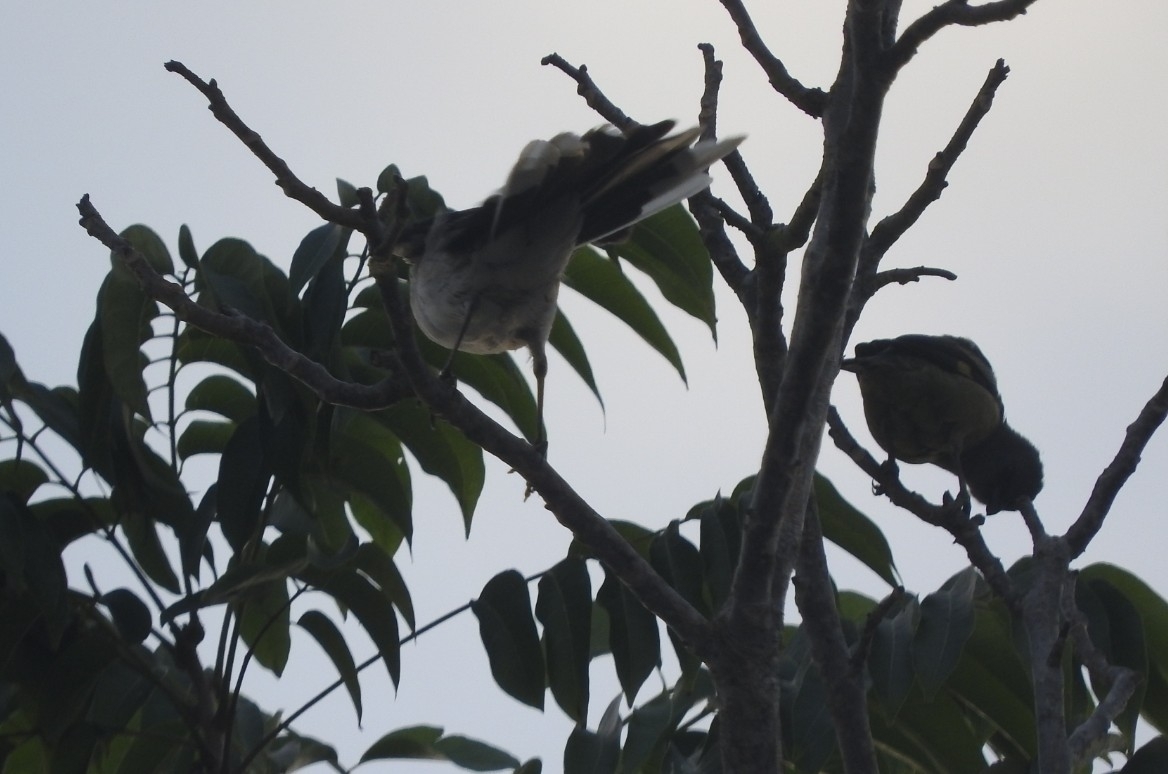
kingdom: Animalia
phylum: Chordata
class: Aves
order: Passeriformes
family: Mimidae
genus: Mimus
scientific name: Mimus gilvus
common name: Tropical mockingbird
